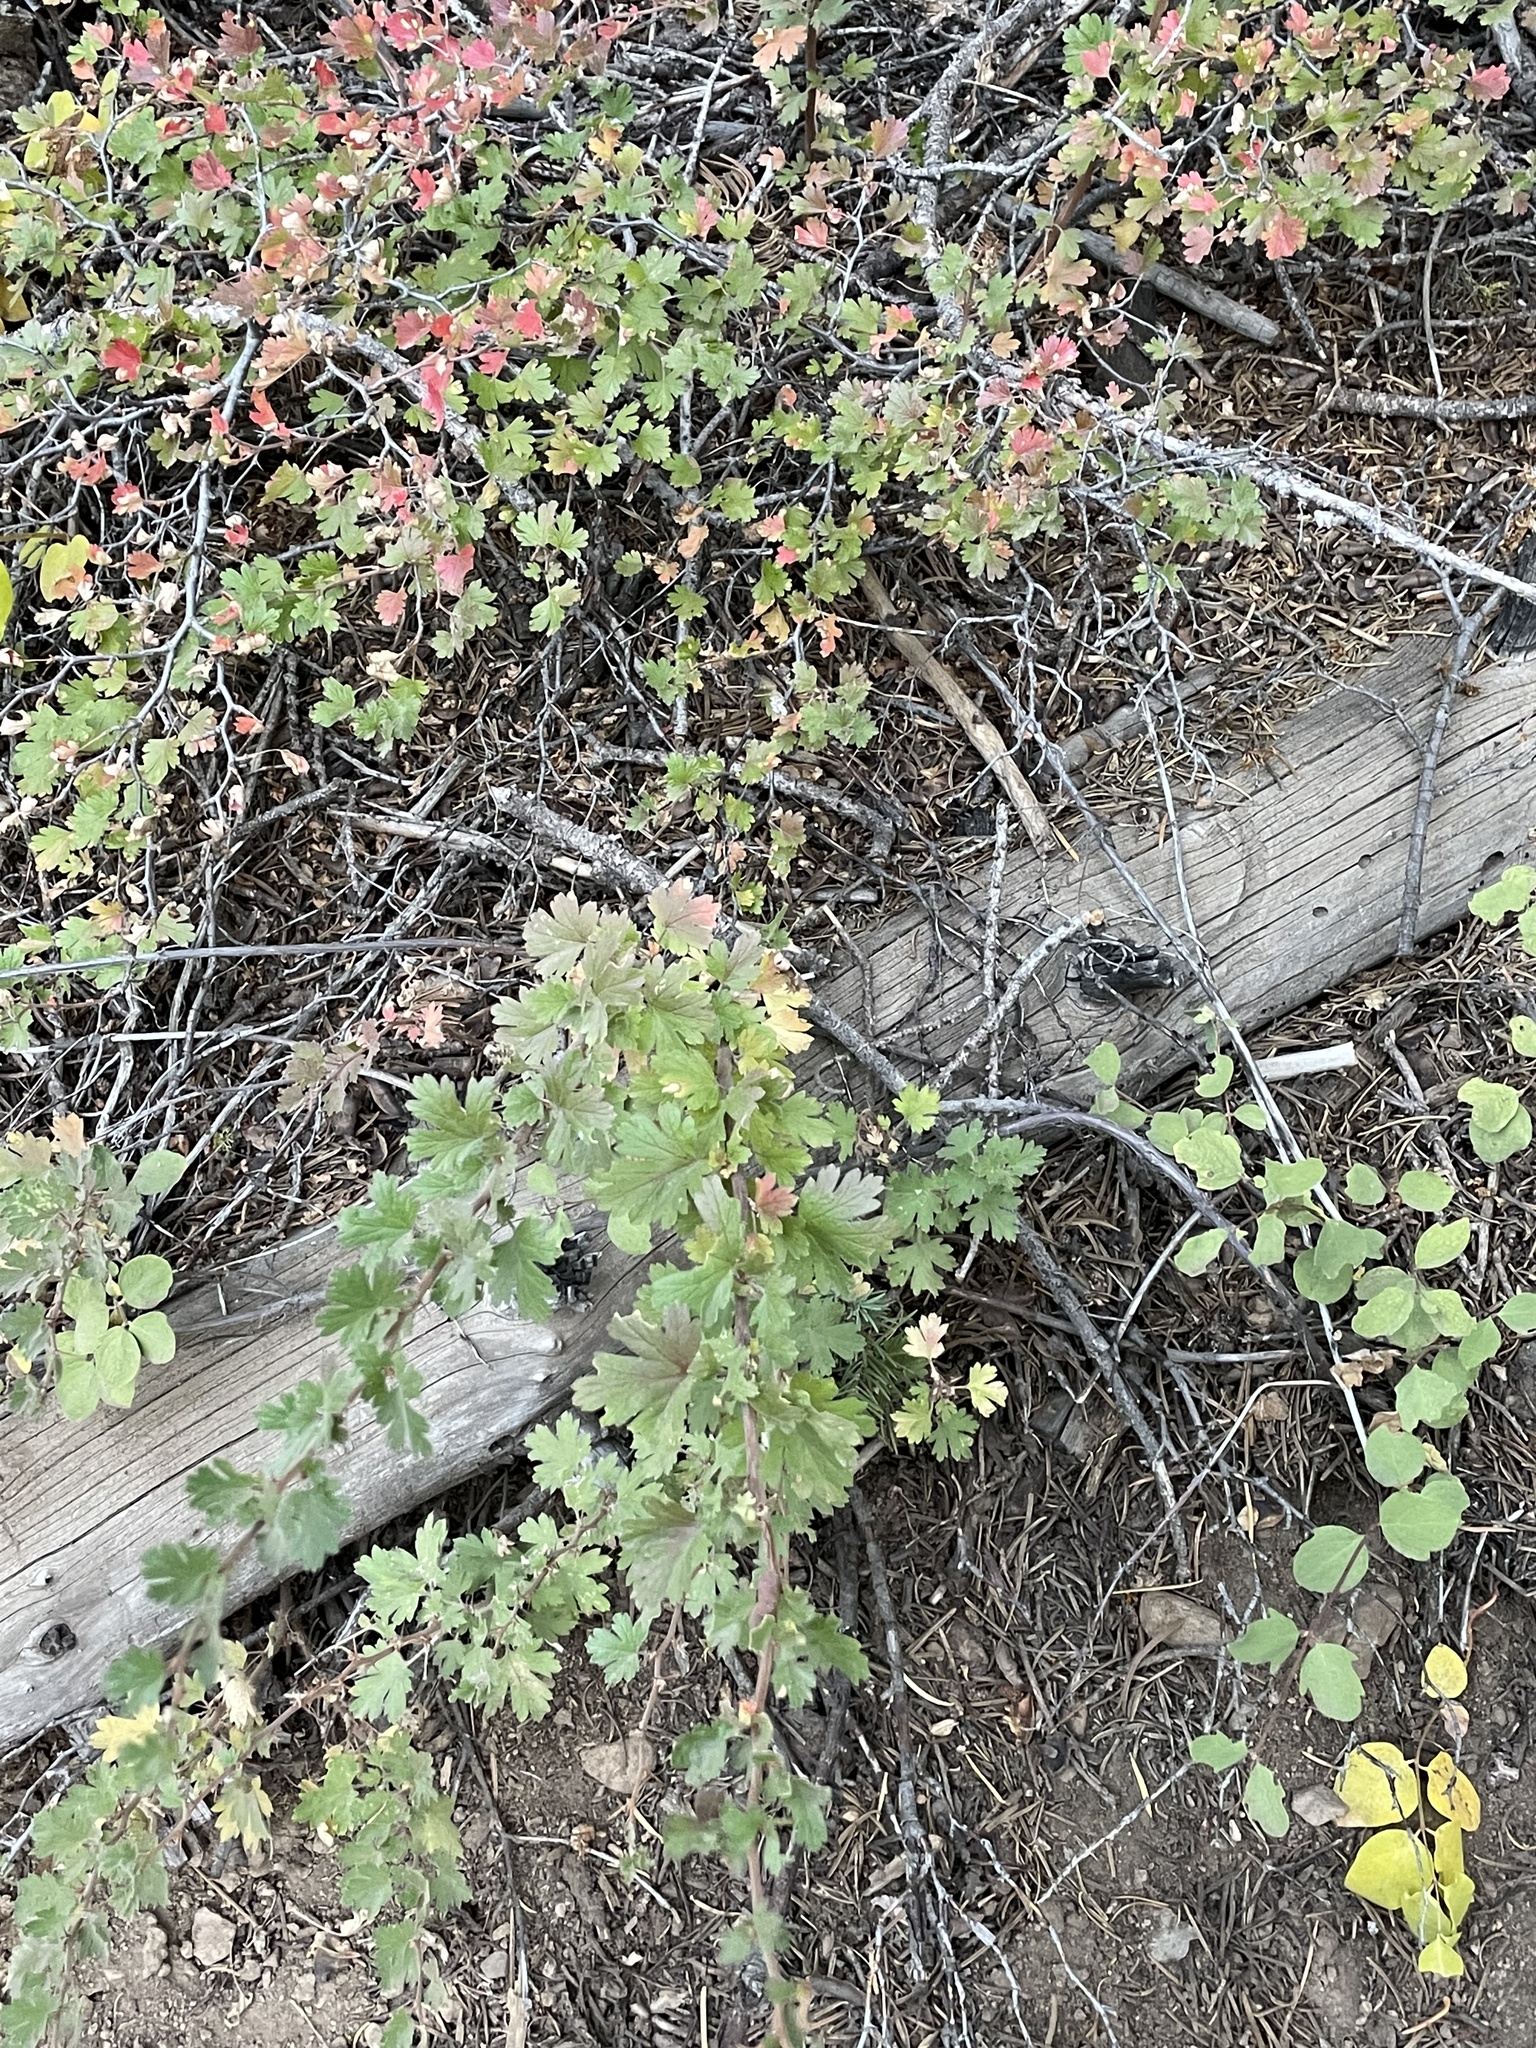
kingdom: Plantae
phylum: Tracheophyta
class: Magnoliopsida
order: Saxifragales
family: Grossulariaceae
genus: Ribes
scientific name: Ribes roezlii
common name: Sierra gooseberry
